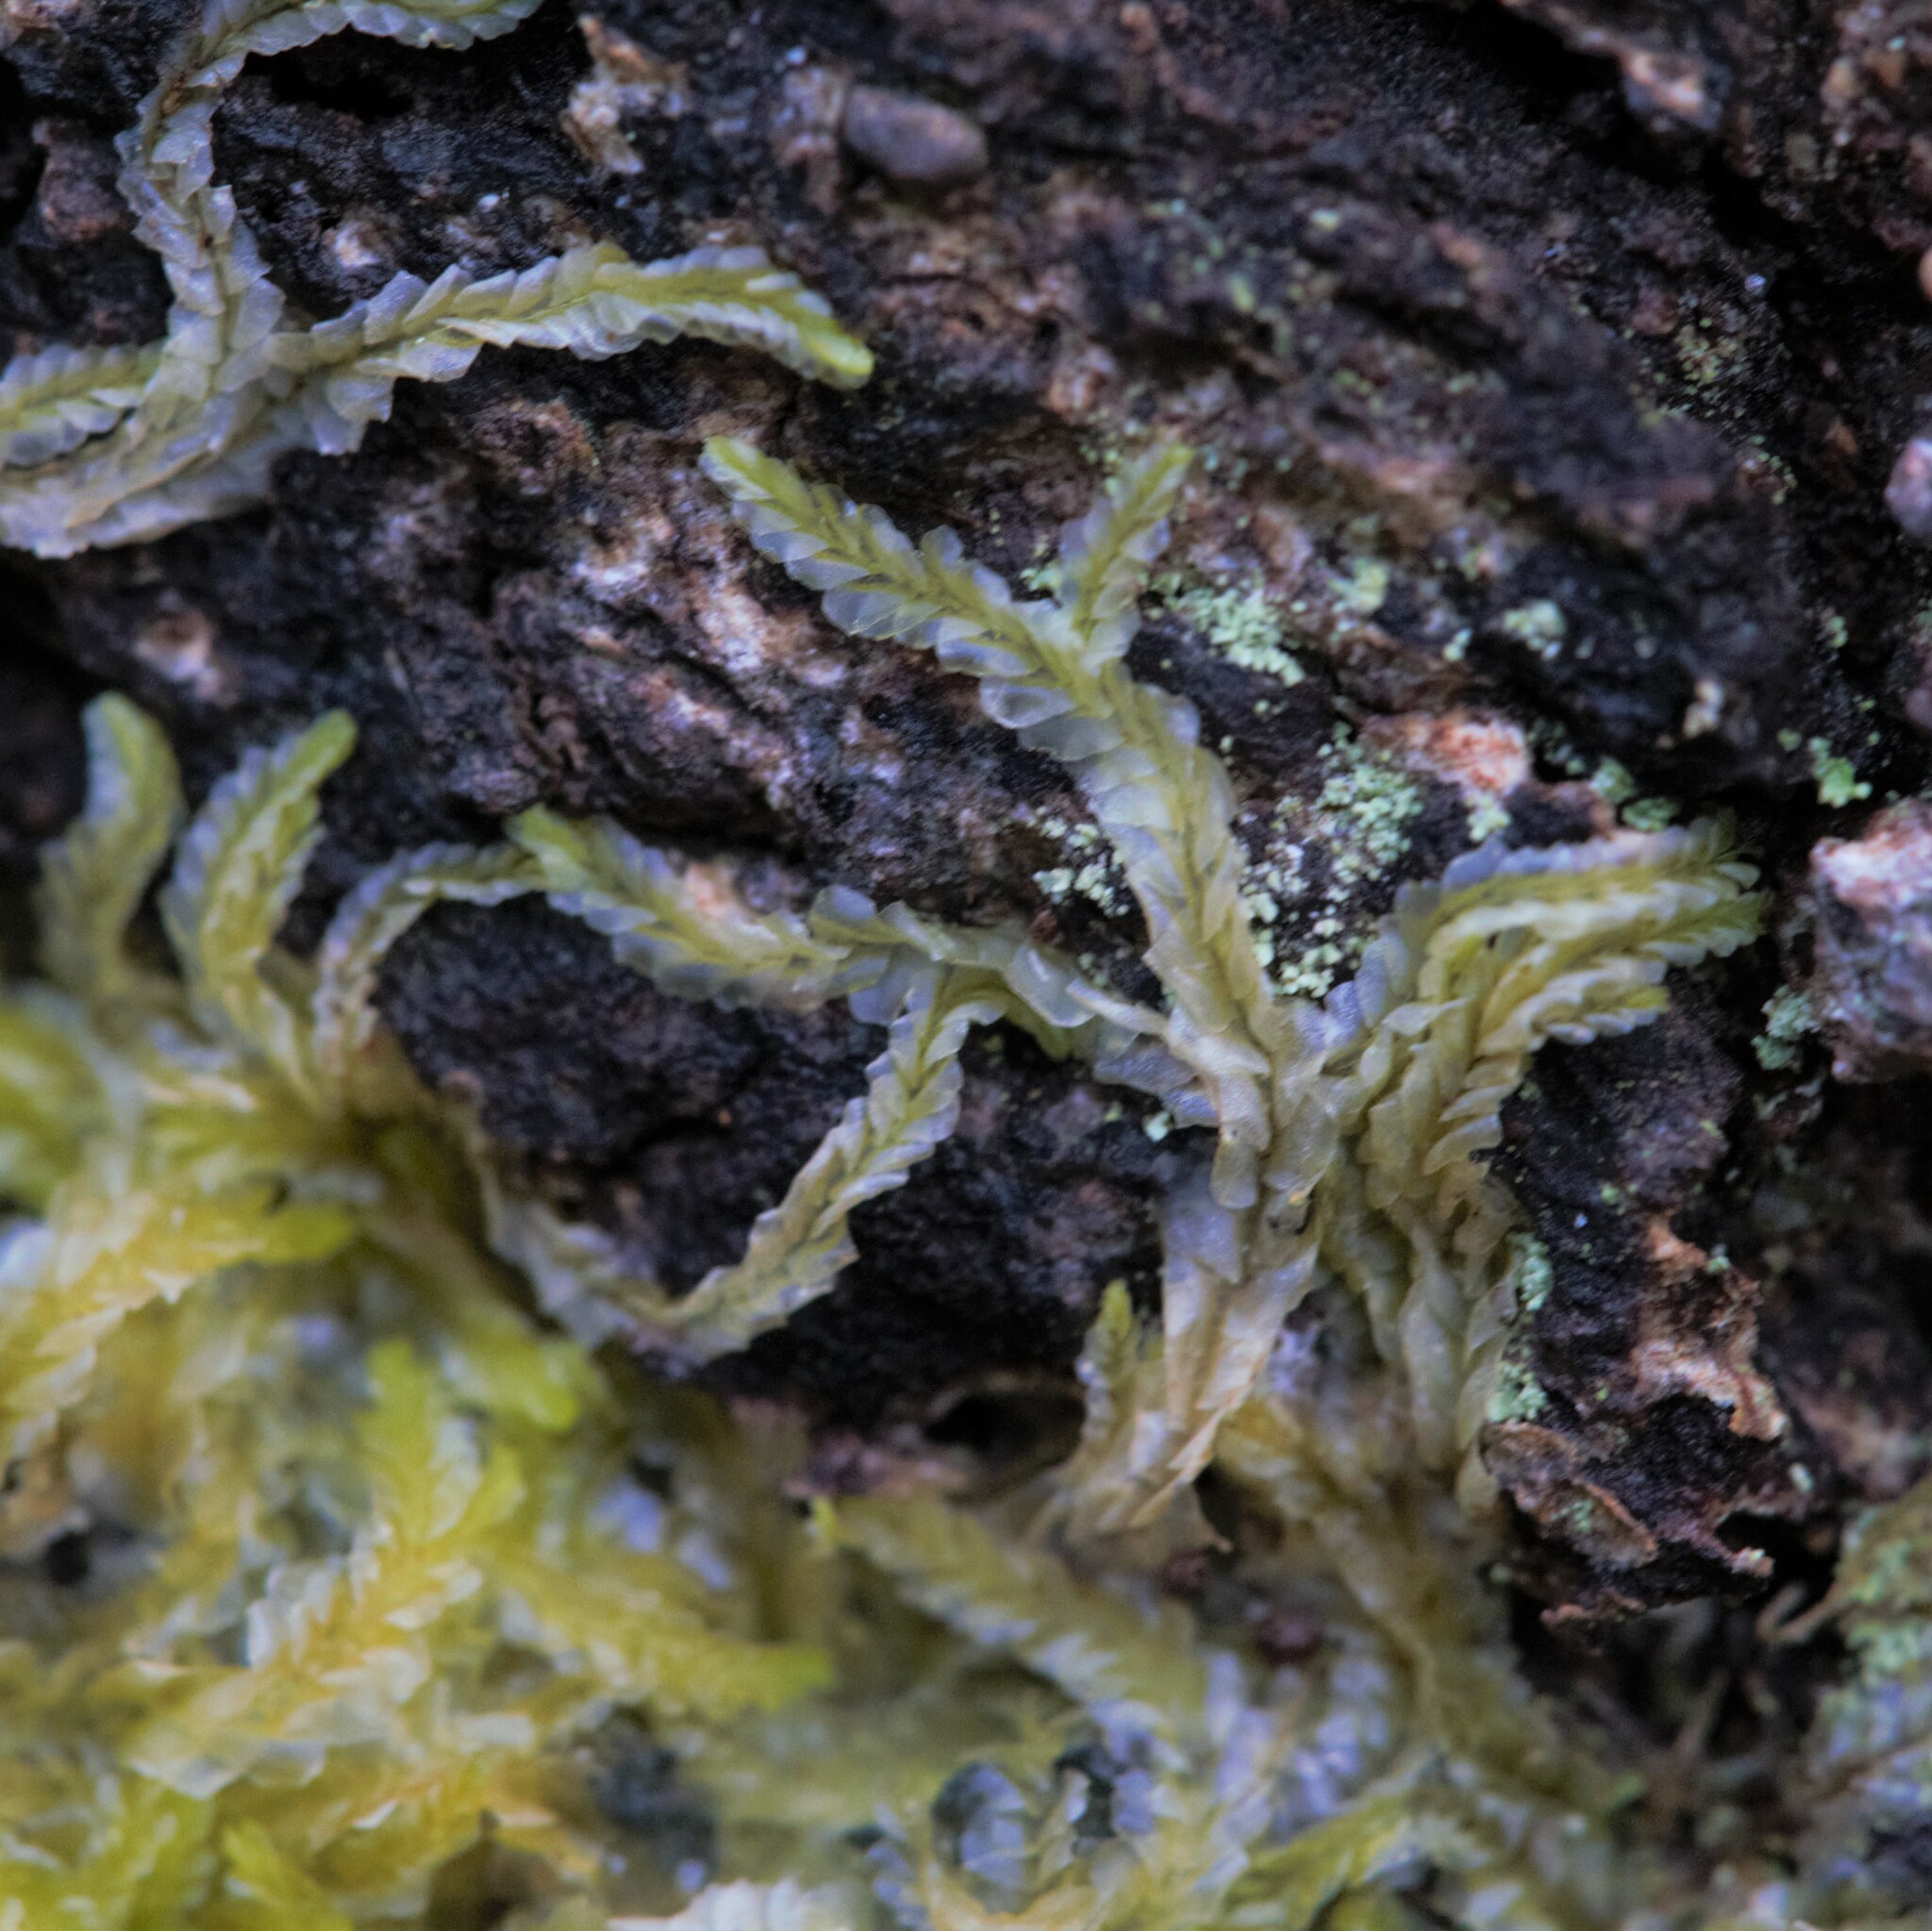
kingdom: Plantae
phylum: Marchantiophyta
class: Jungermanniopsida
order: Jungermanniales
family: Lophocoleaceae
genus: Lophocolea
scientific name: Lophocolea semiteres
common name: Southern crestwort
